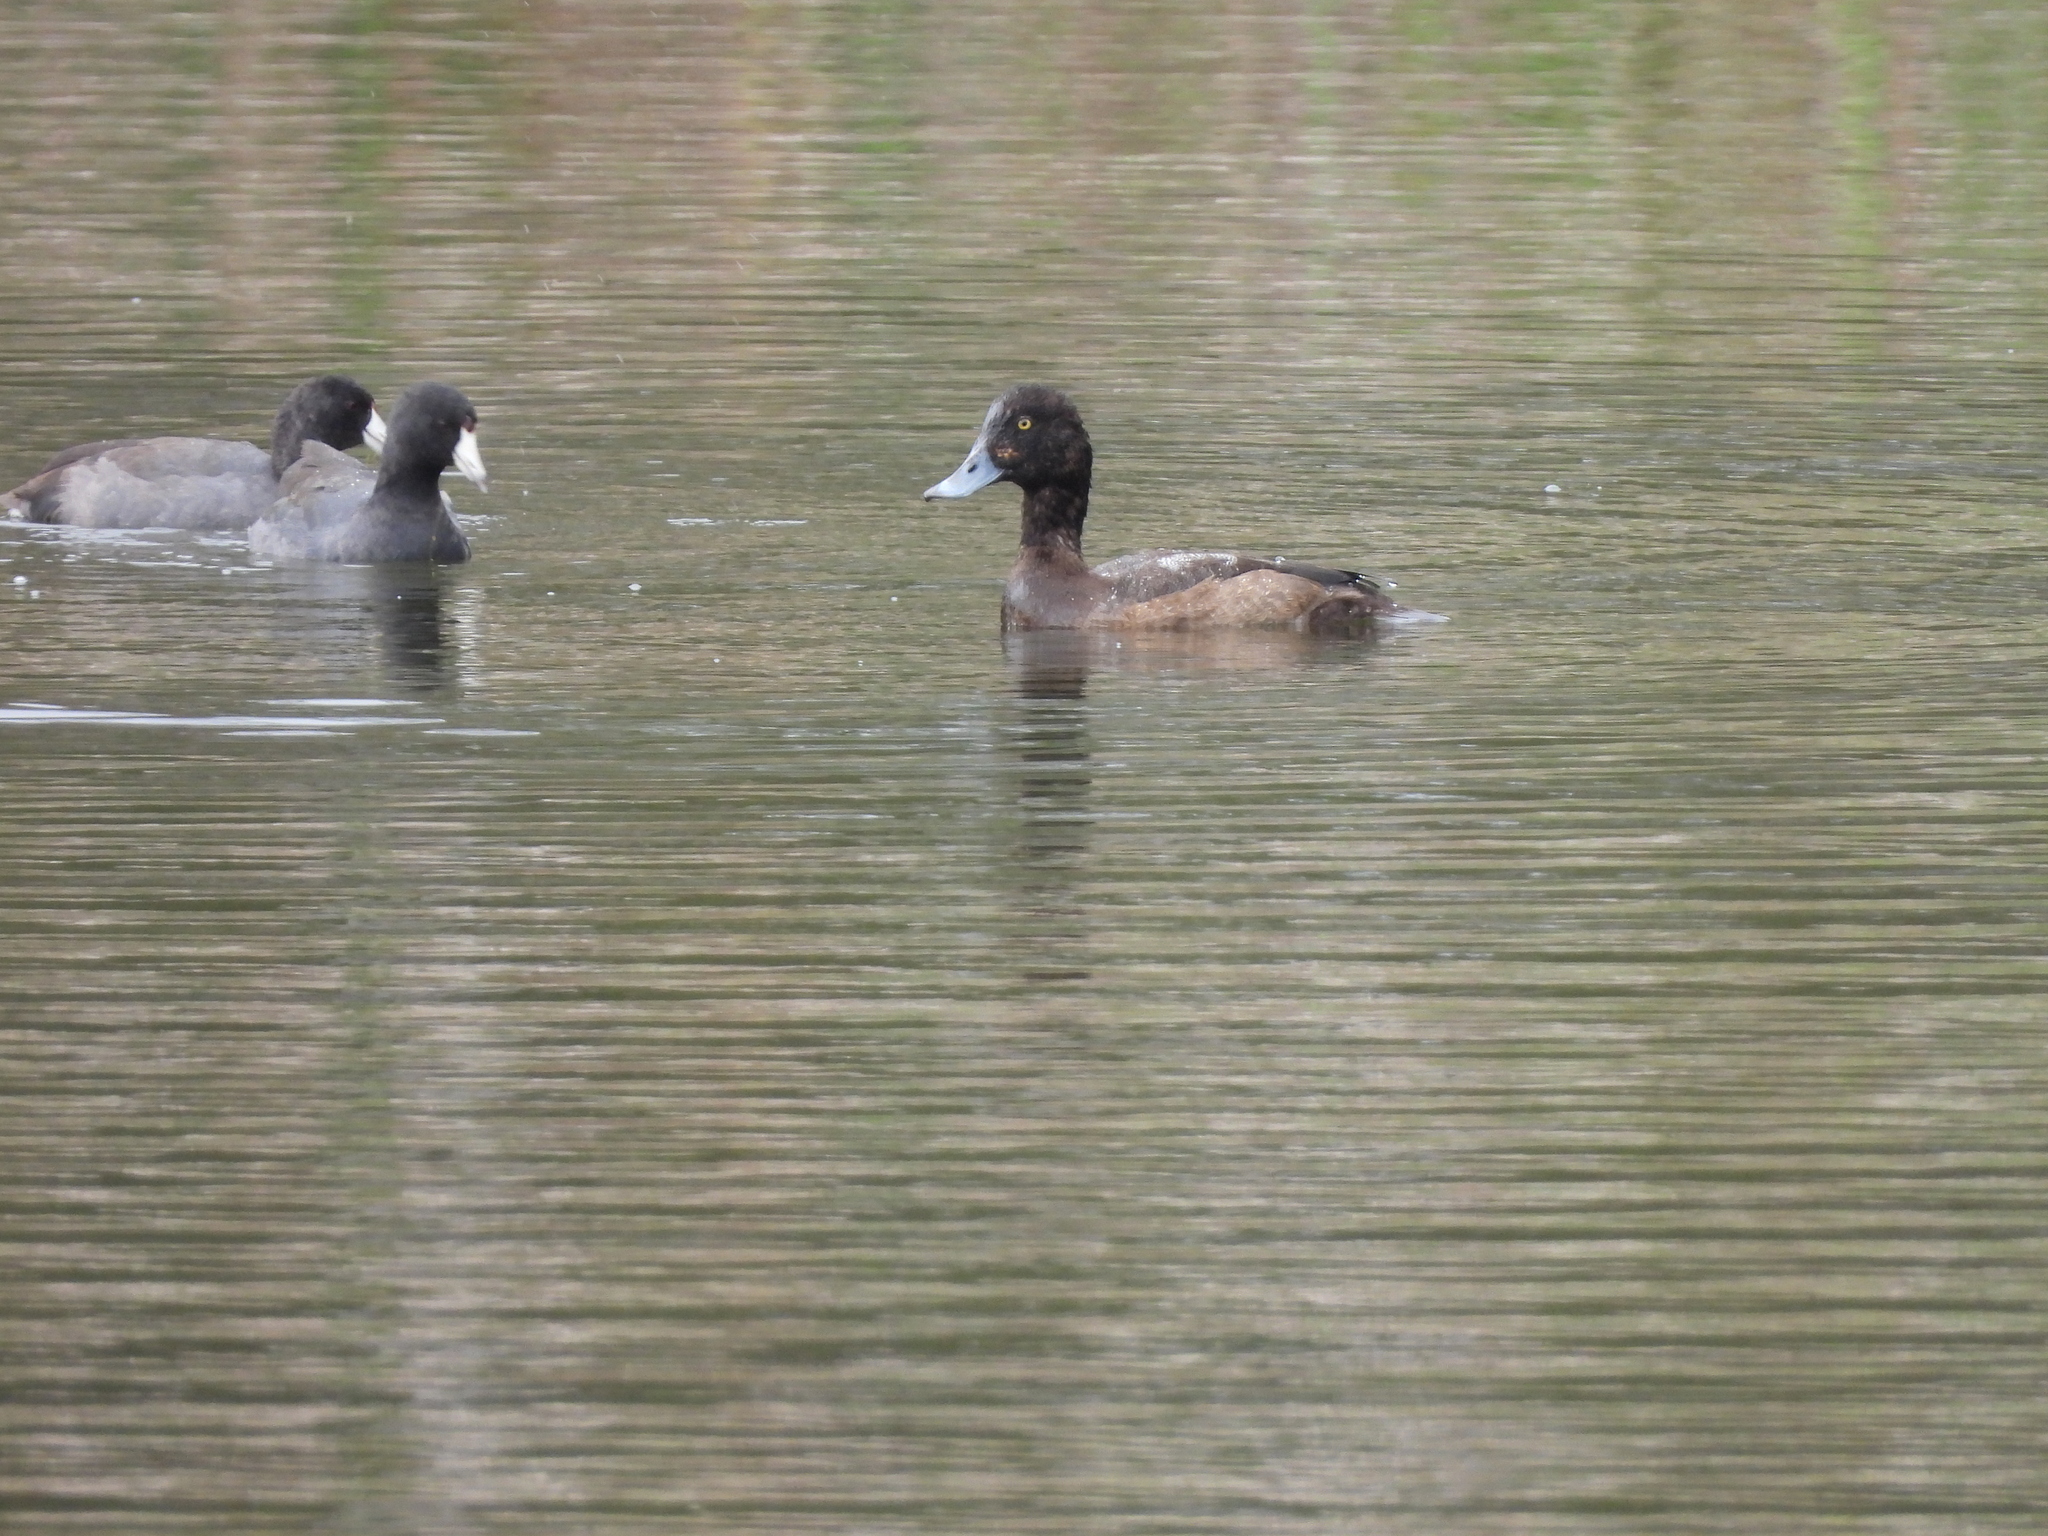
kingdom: Animalia
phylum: Chordata
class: Aves
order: Gruiformes
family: Rallidae
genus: Fulica
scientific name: Fulica americana
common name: American coot
